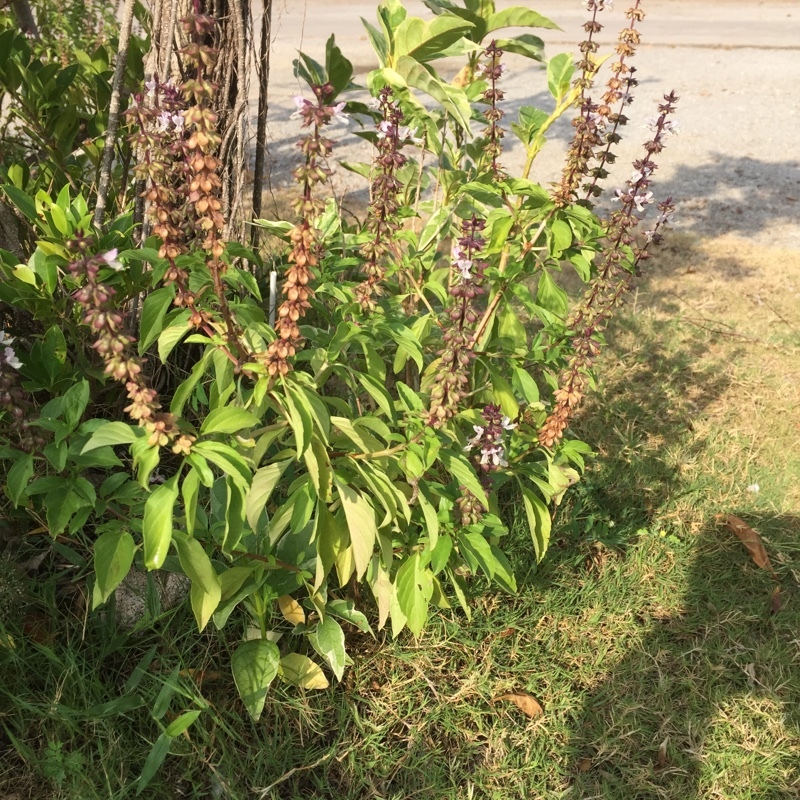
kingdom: Plantae
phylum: Tracheophyta
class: Magnoliopsida
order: Lamiales
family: Lamiaceae
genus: Ocimum
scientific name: Ocimum basilicum
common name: Sweet basil
